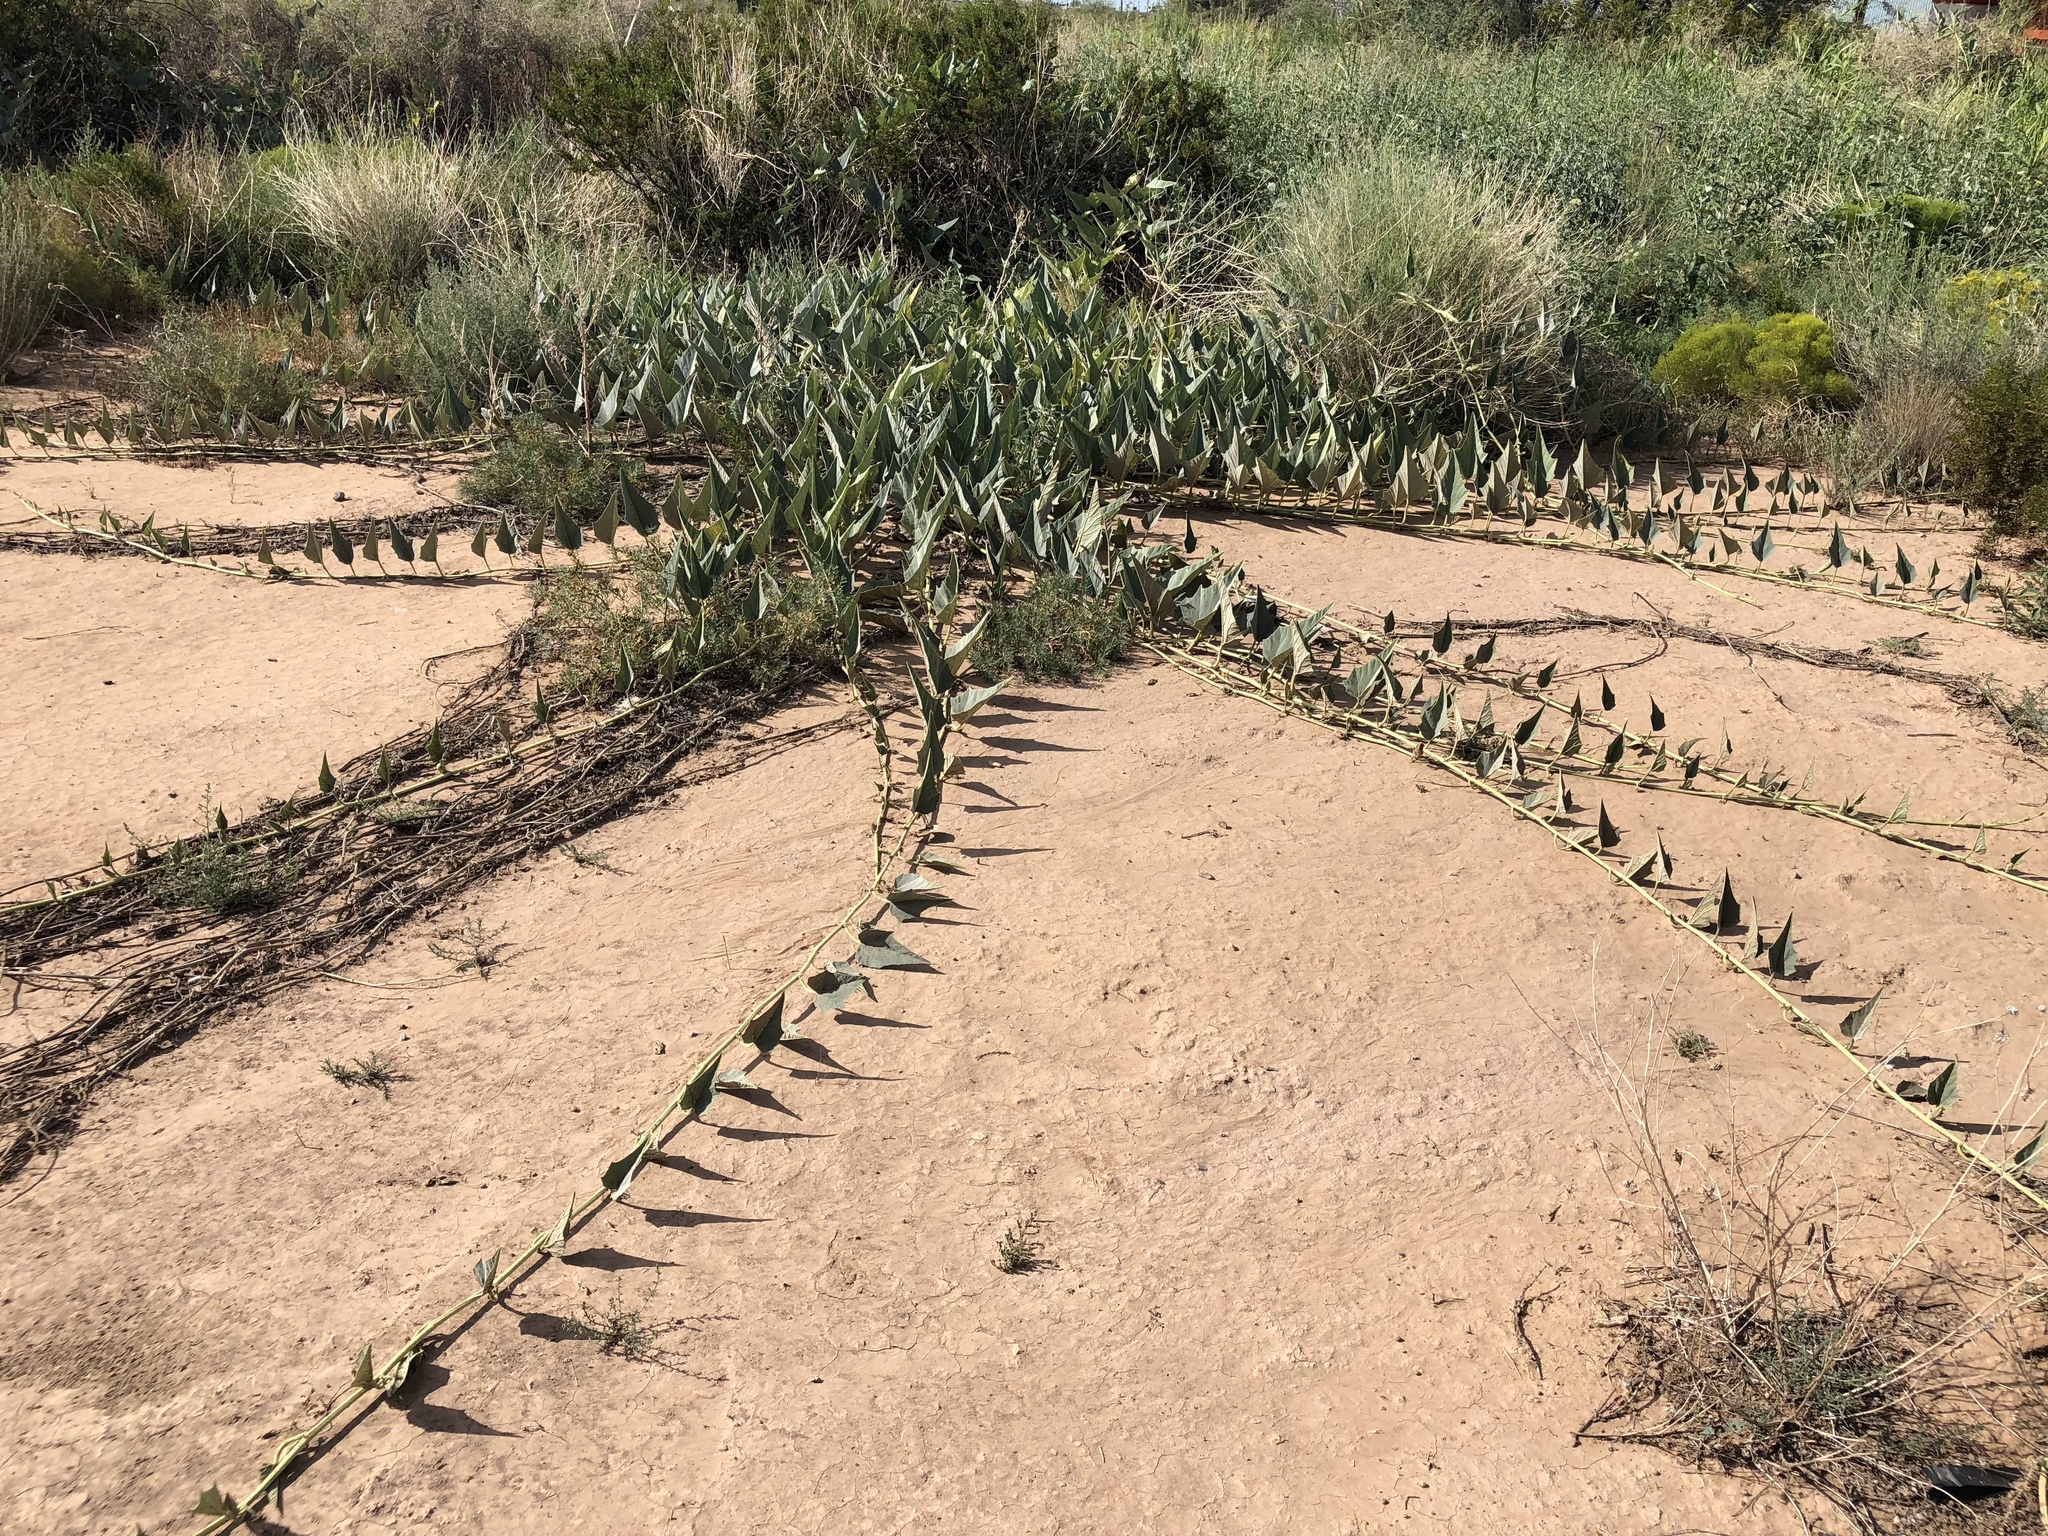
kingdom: Plantae
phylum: Tracheophyta
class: Magnoliopsida
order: Cucurbitales
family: Cucurbitaceae
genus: Cucurbita
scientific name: Cucurbita foetidissima
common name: Buffalo gourd
